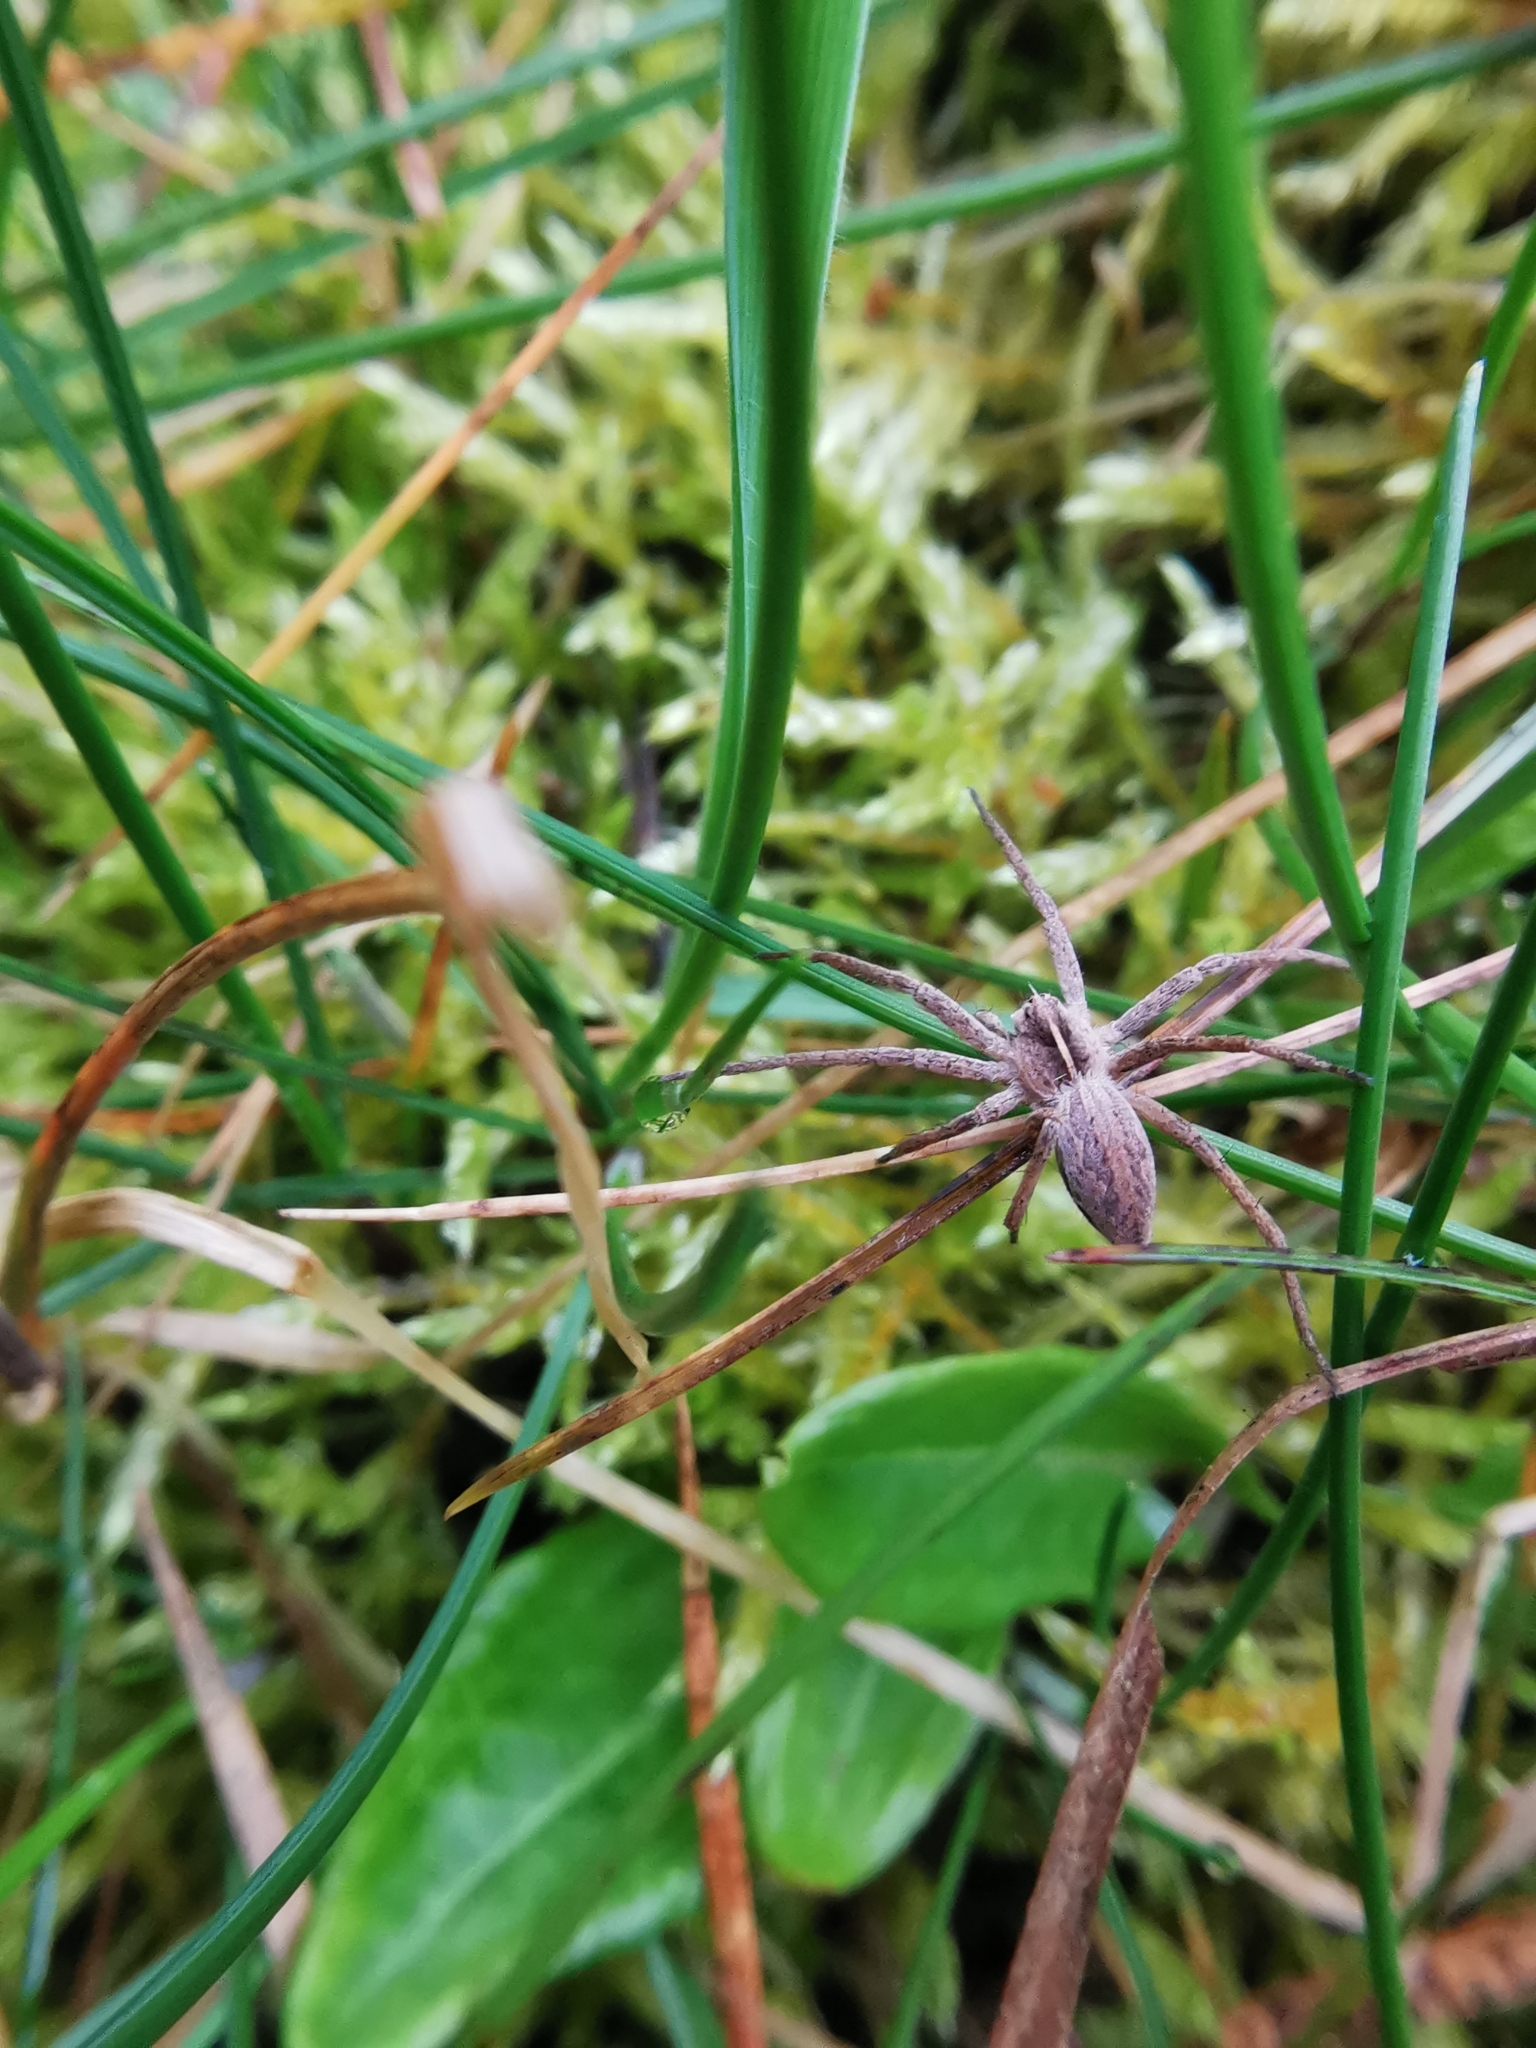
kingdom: Animalia
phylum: Arthropoda
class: Arachnida
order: Araneae
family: Pisauridae
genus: Pisaura
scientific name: Pisaura mirabilis
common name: Tent spider
